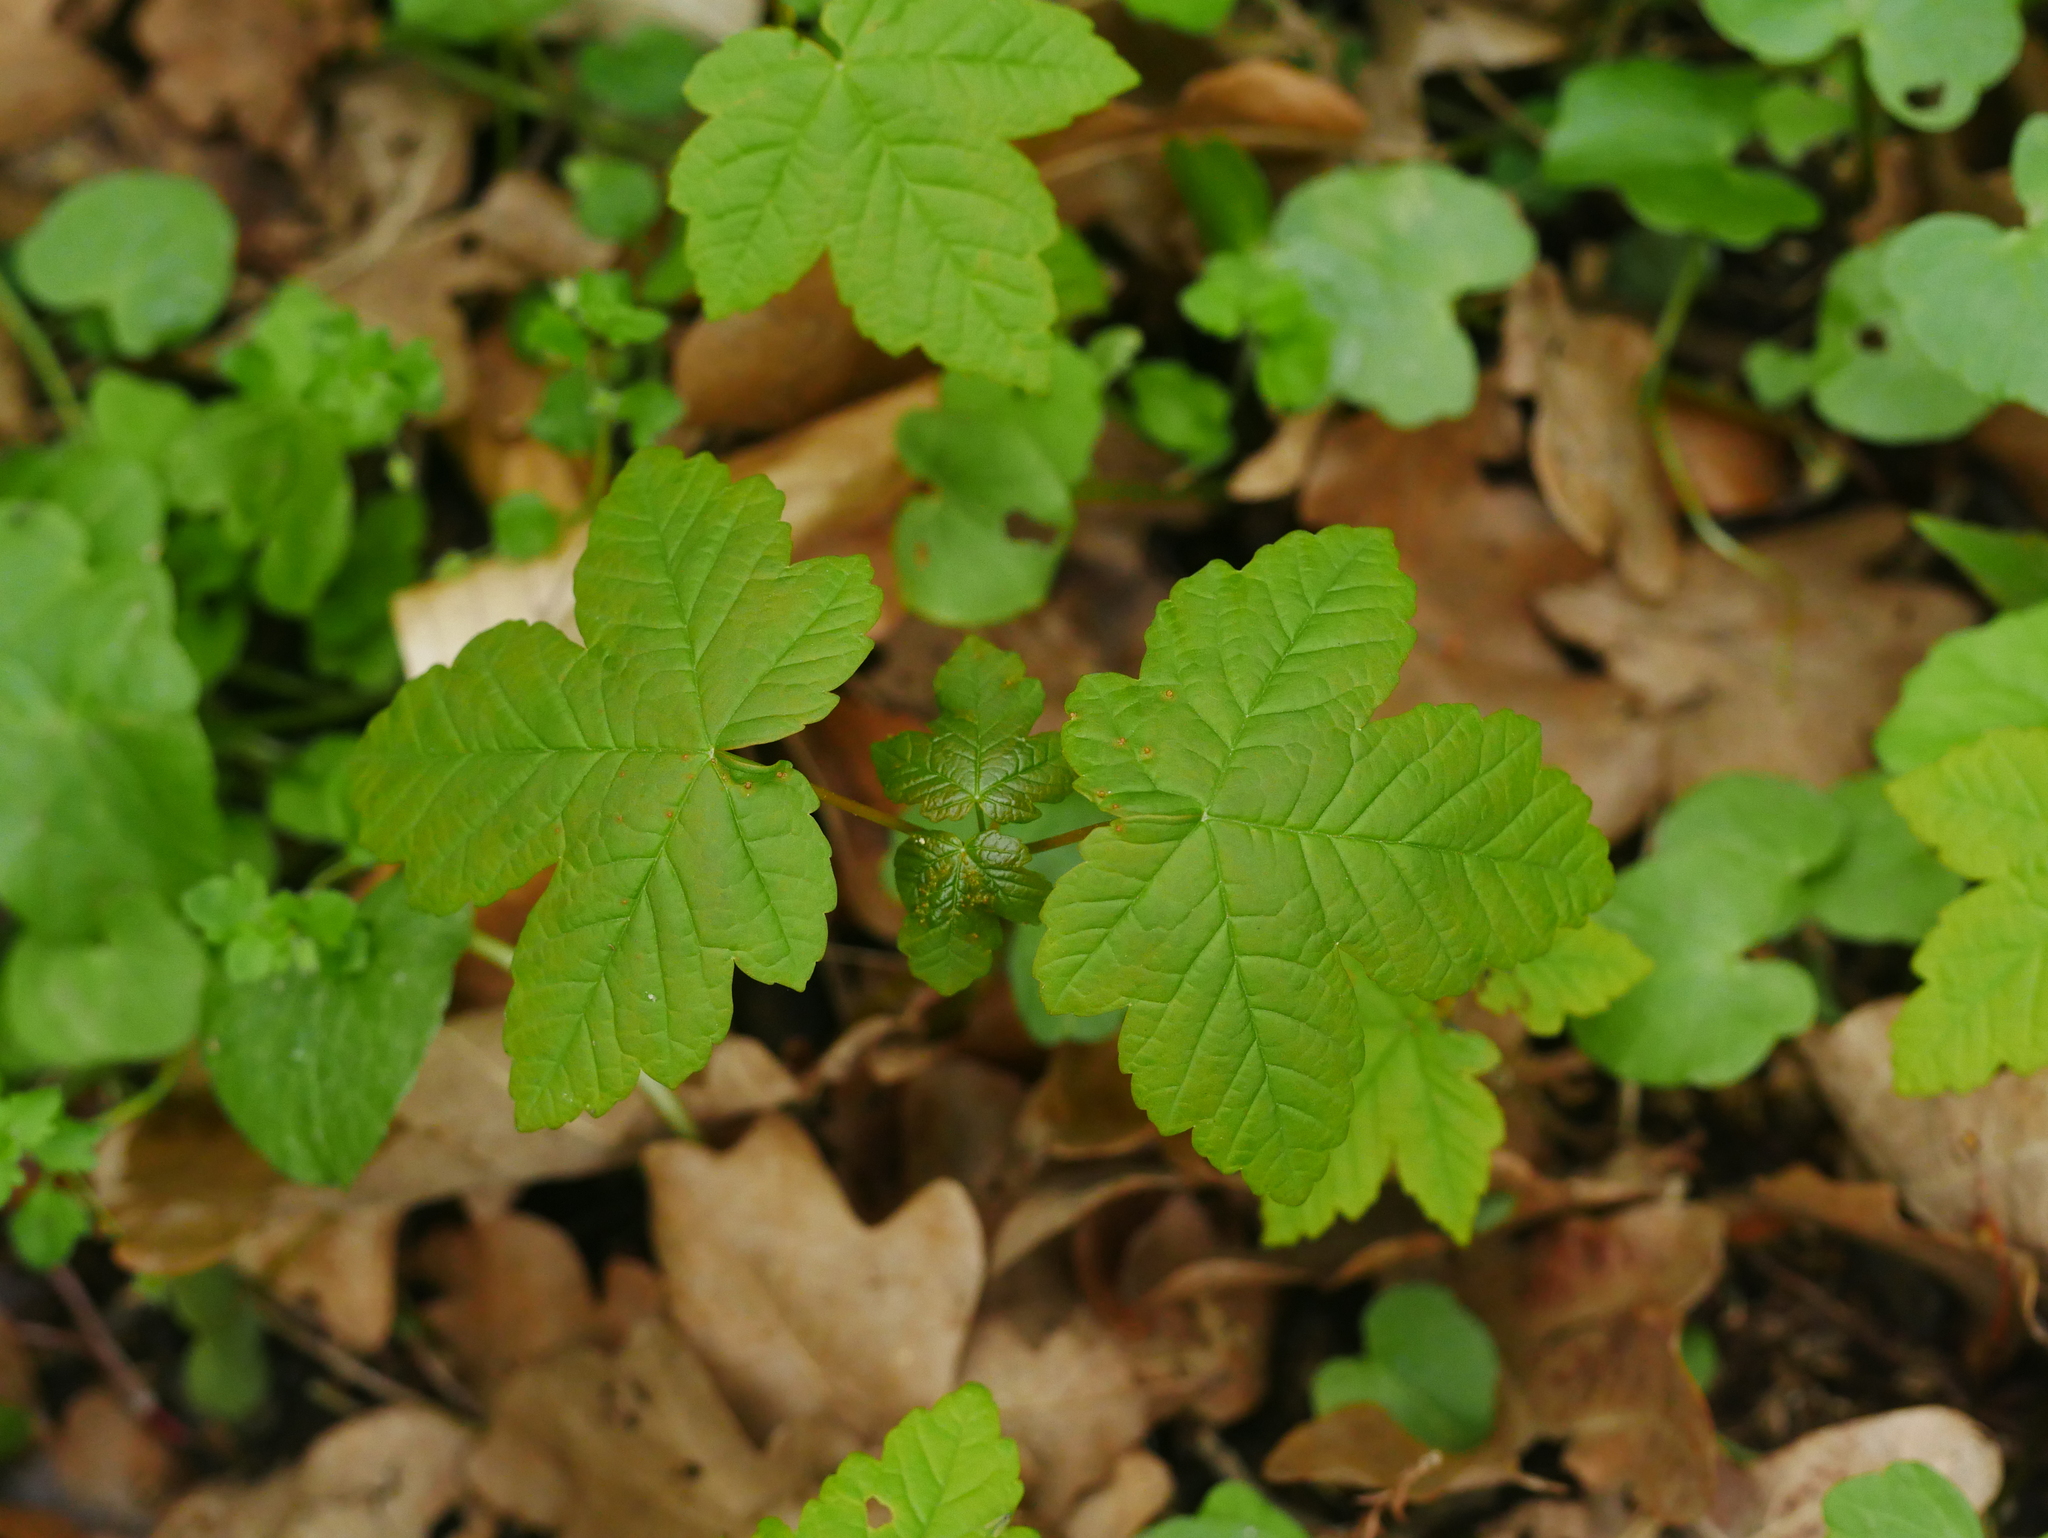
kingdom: Plantae
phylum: Tracheophyta
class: Magnoliopsida
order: Sapindales
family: Sapindaceae
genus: Acer
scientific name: Acer pseudoplatanus
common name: Sycamore
